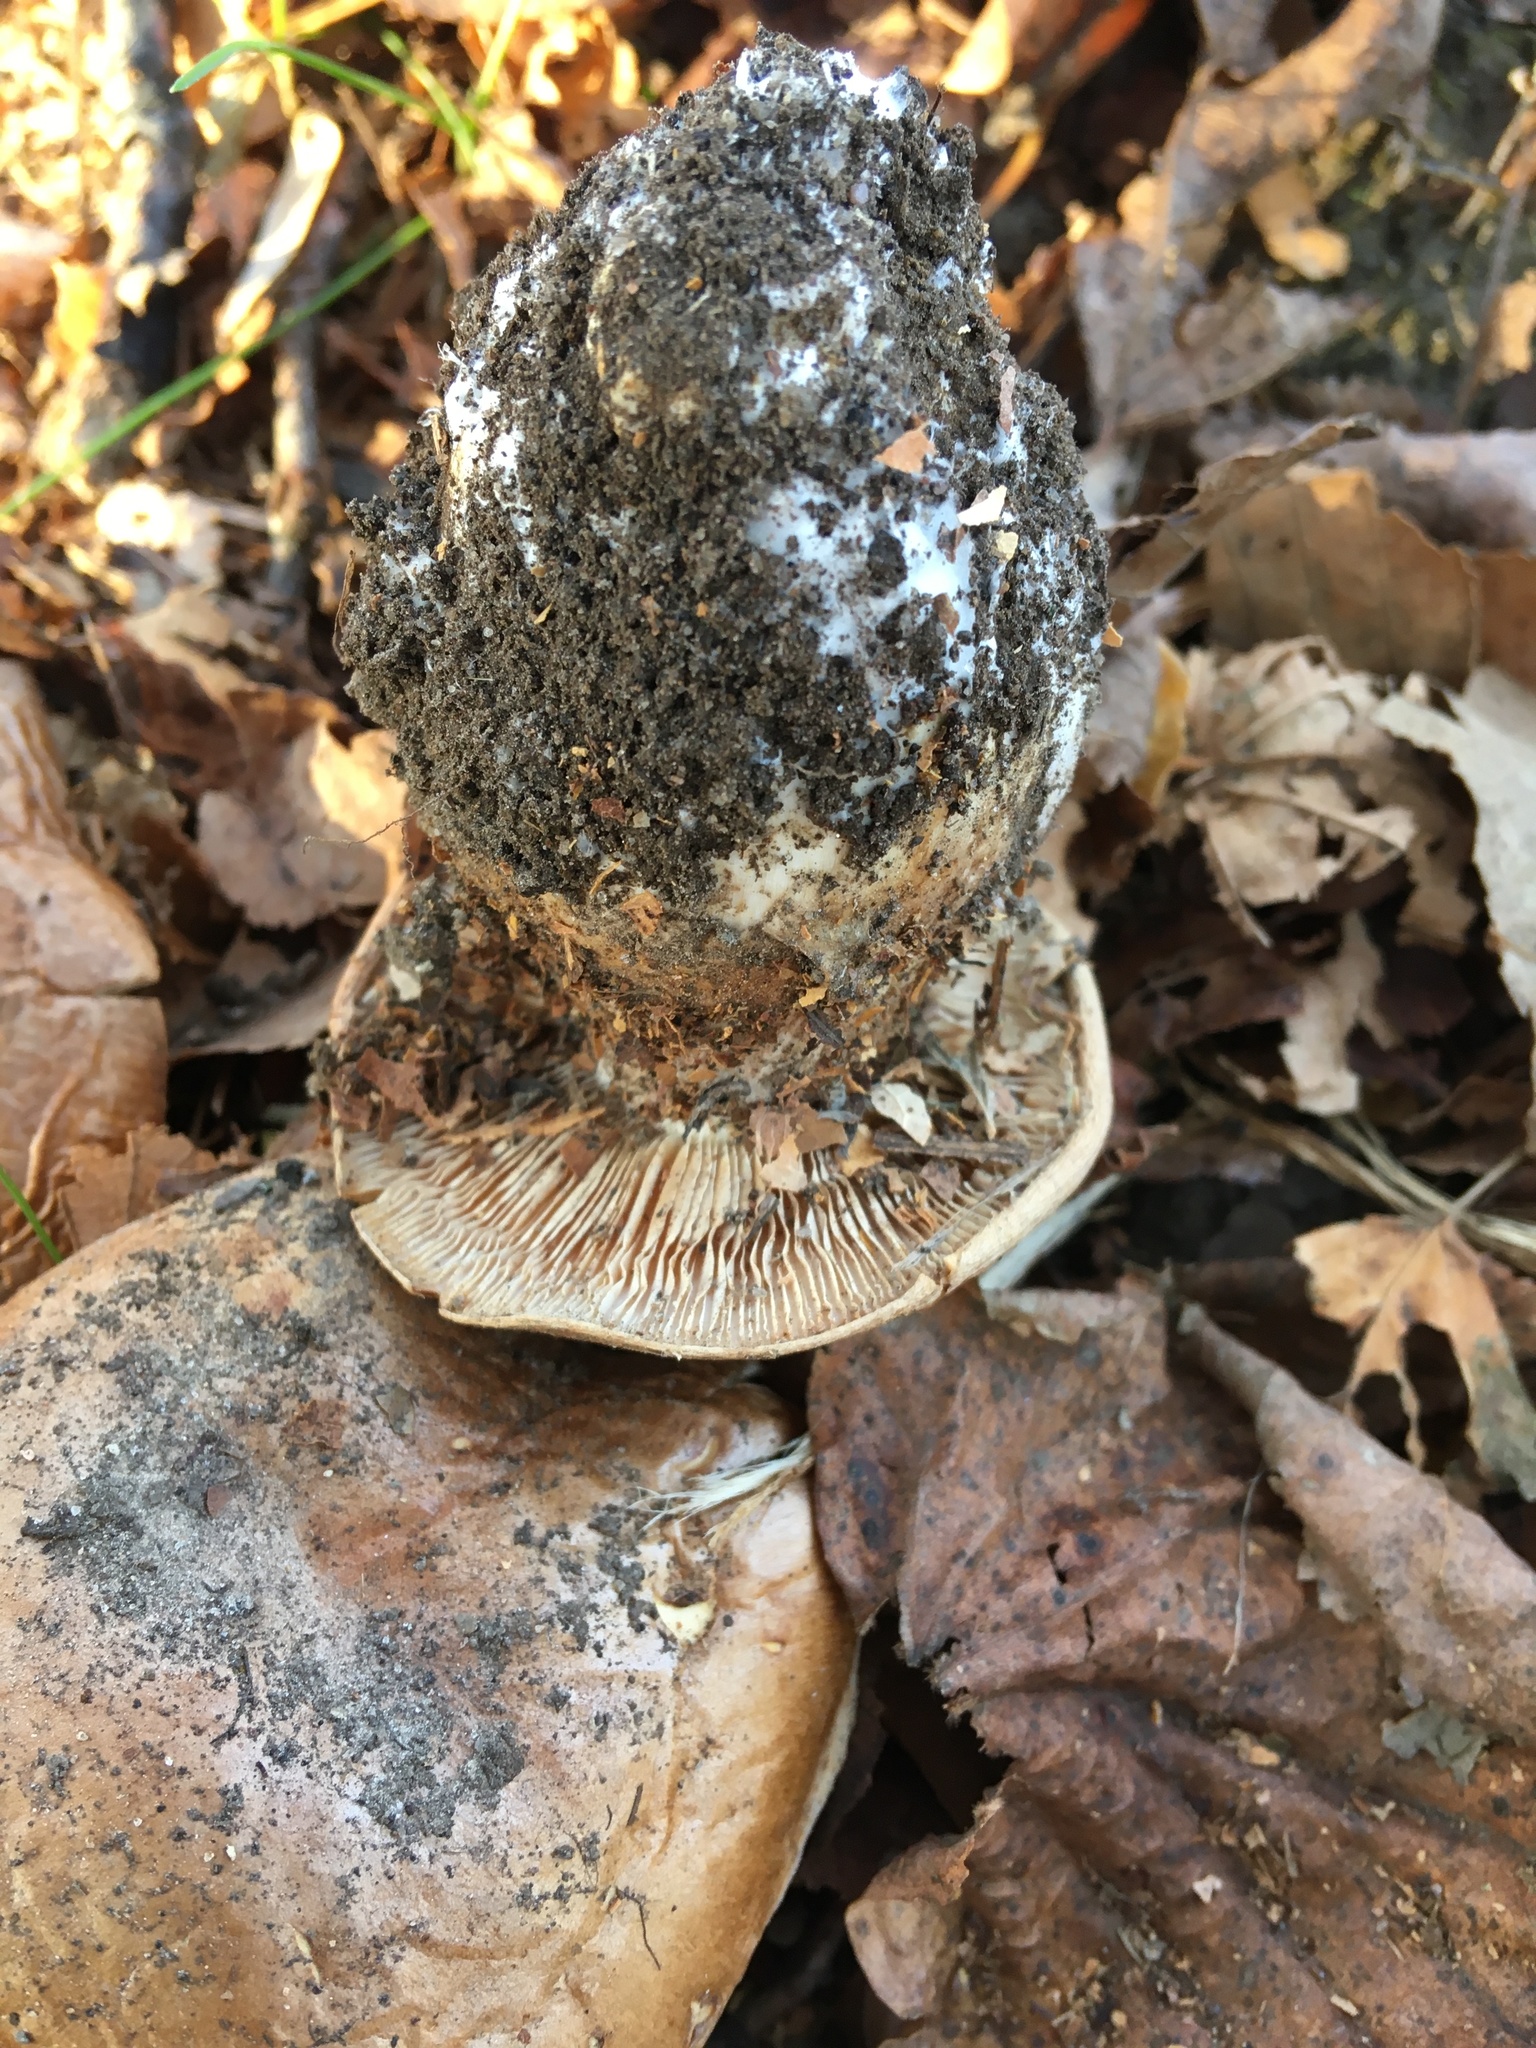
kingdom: Fungi
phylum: Basidiomycota
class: Agaricomycetes
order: Agaricales
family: Cortinariaceae
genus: Phlegmacium
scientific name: Phlegmacium balteatocumatile
